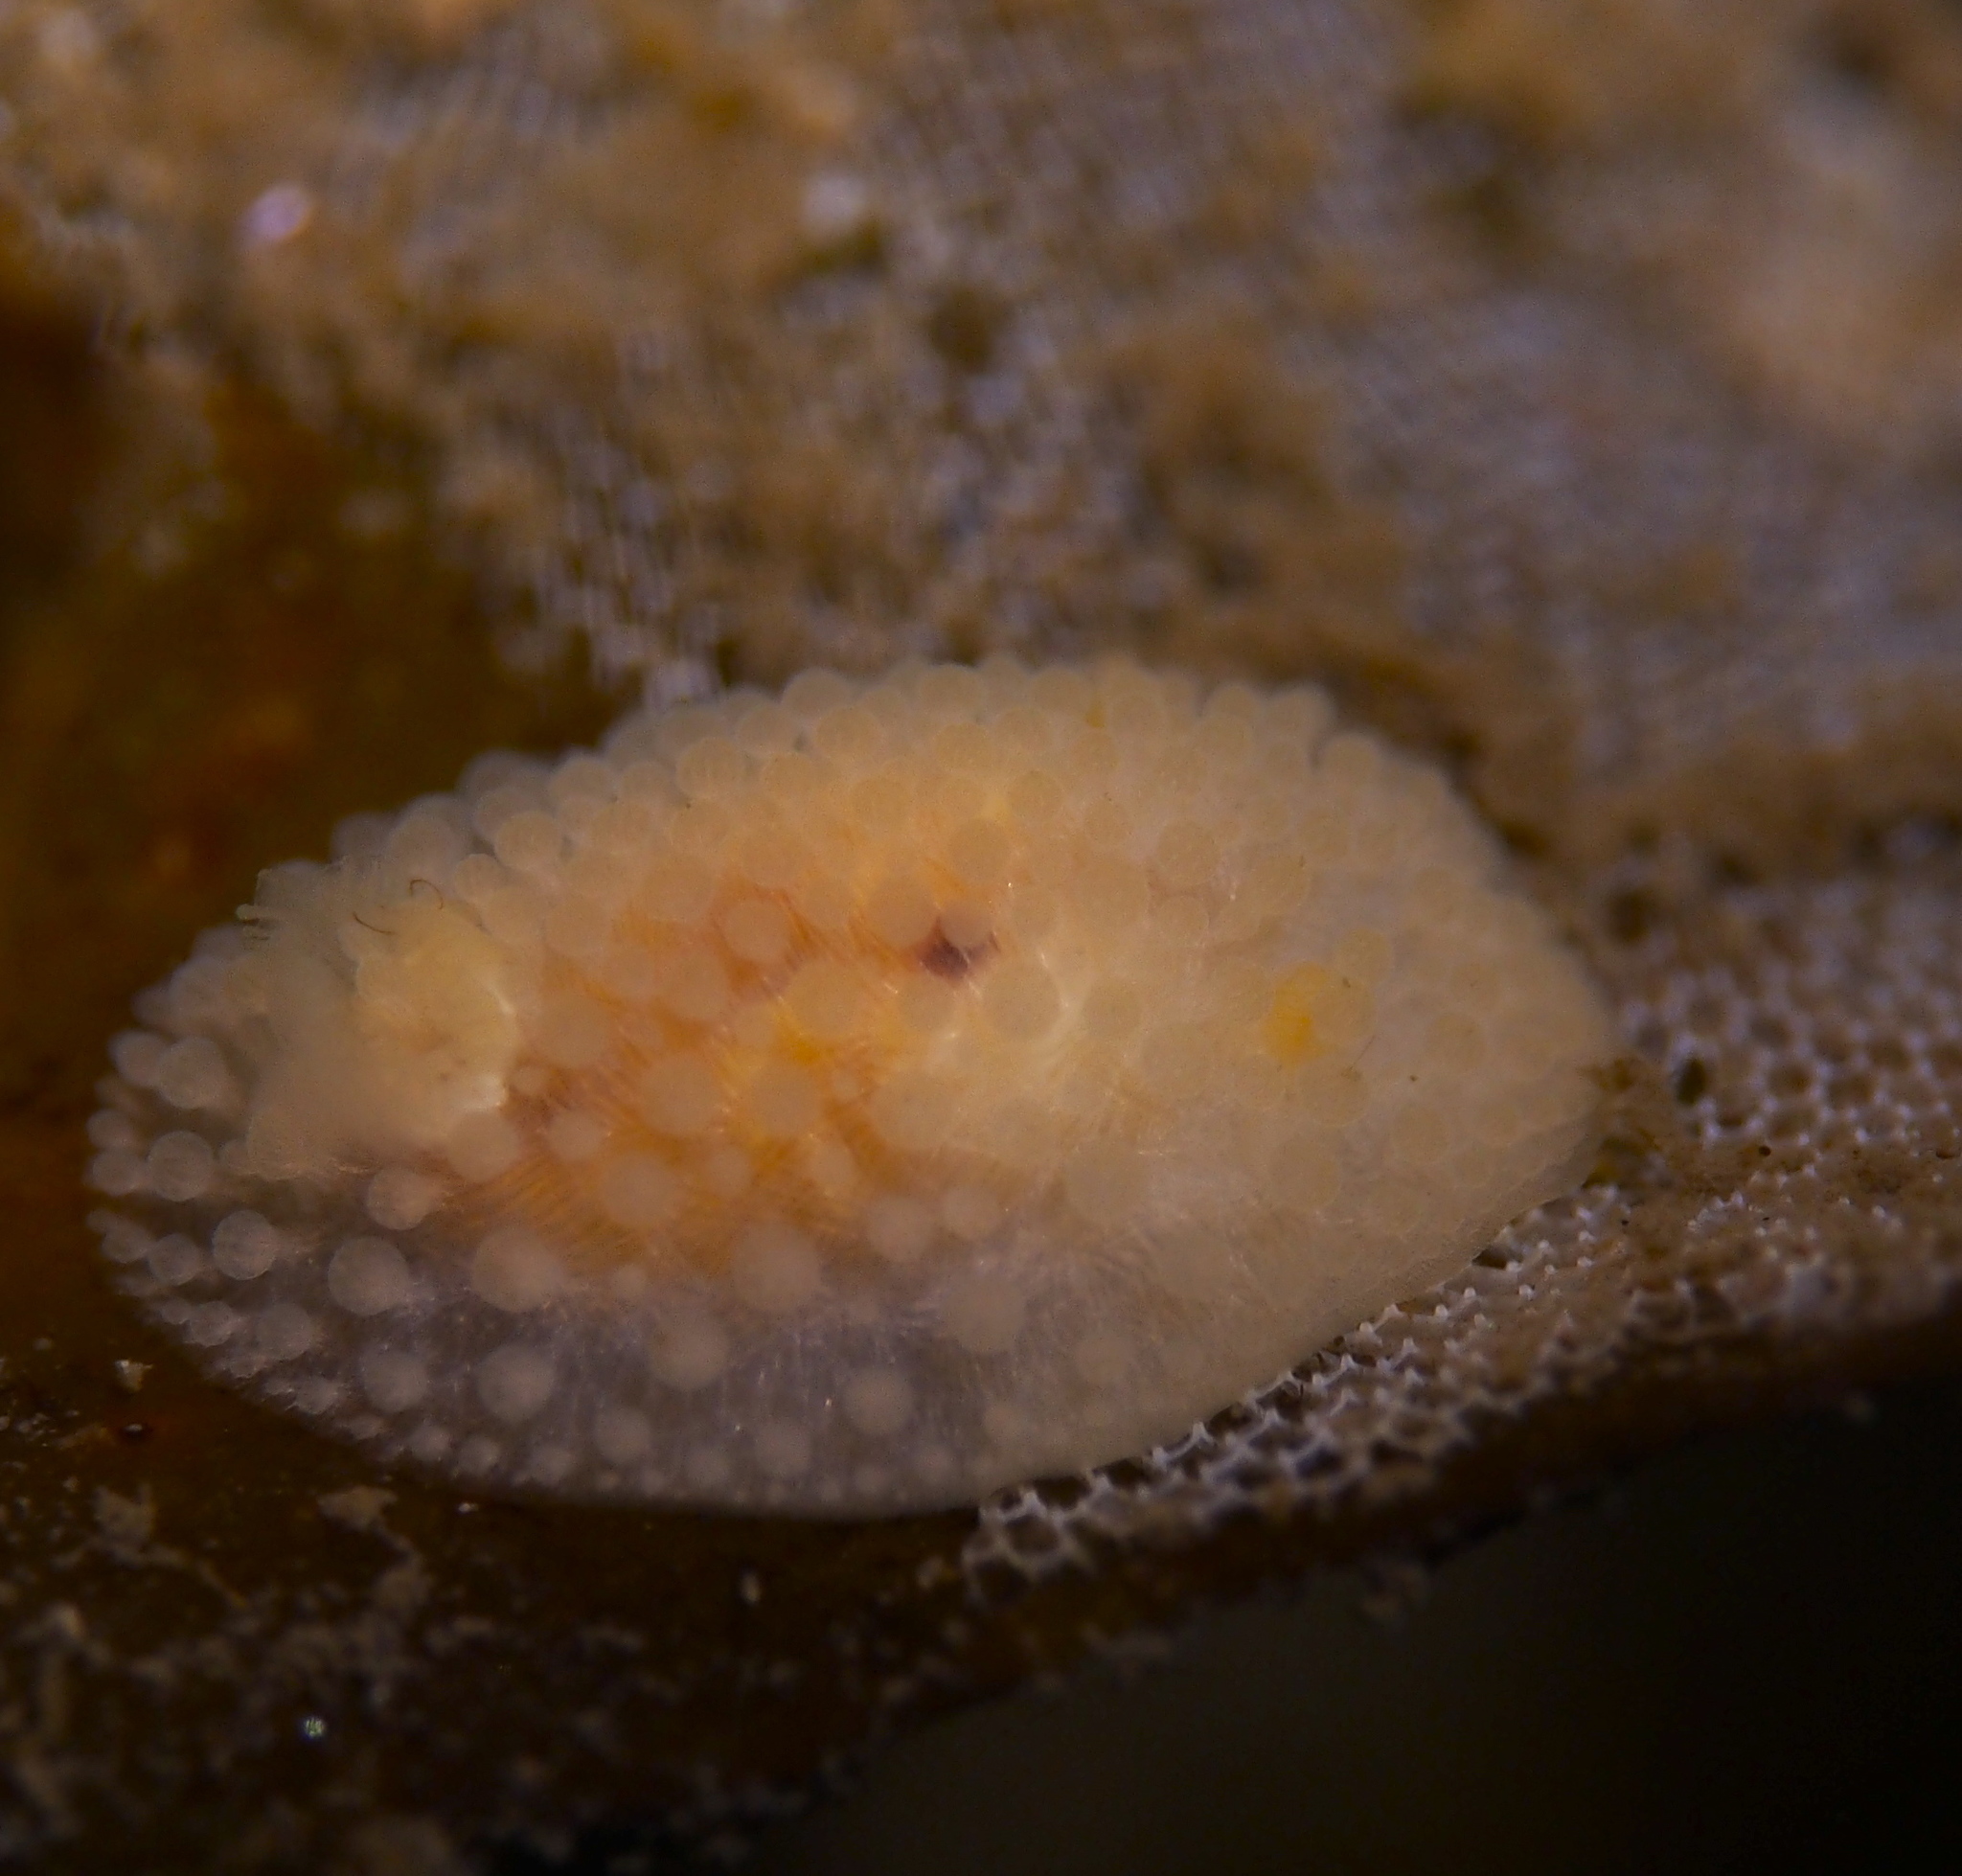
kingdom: Animalia
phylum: Mollusca
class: Gastropoda
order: Nudibranchia
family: Onchidorididae
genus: Onchidoris
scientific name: Onchidoris muricata
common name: Rough doris
